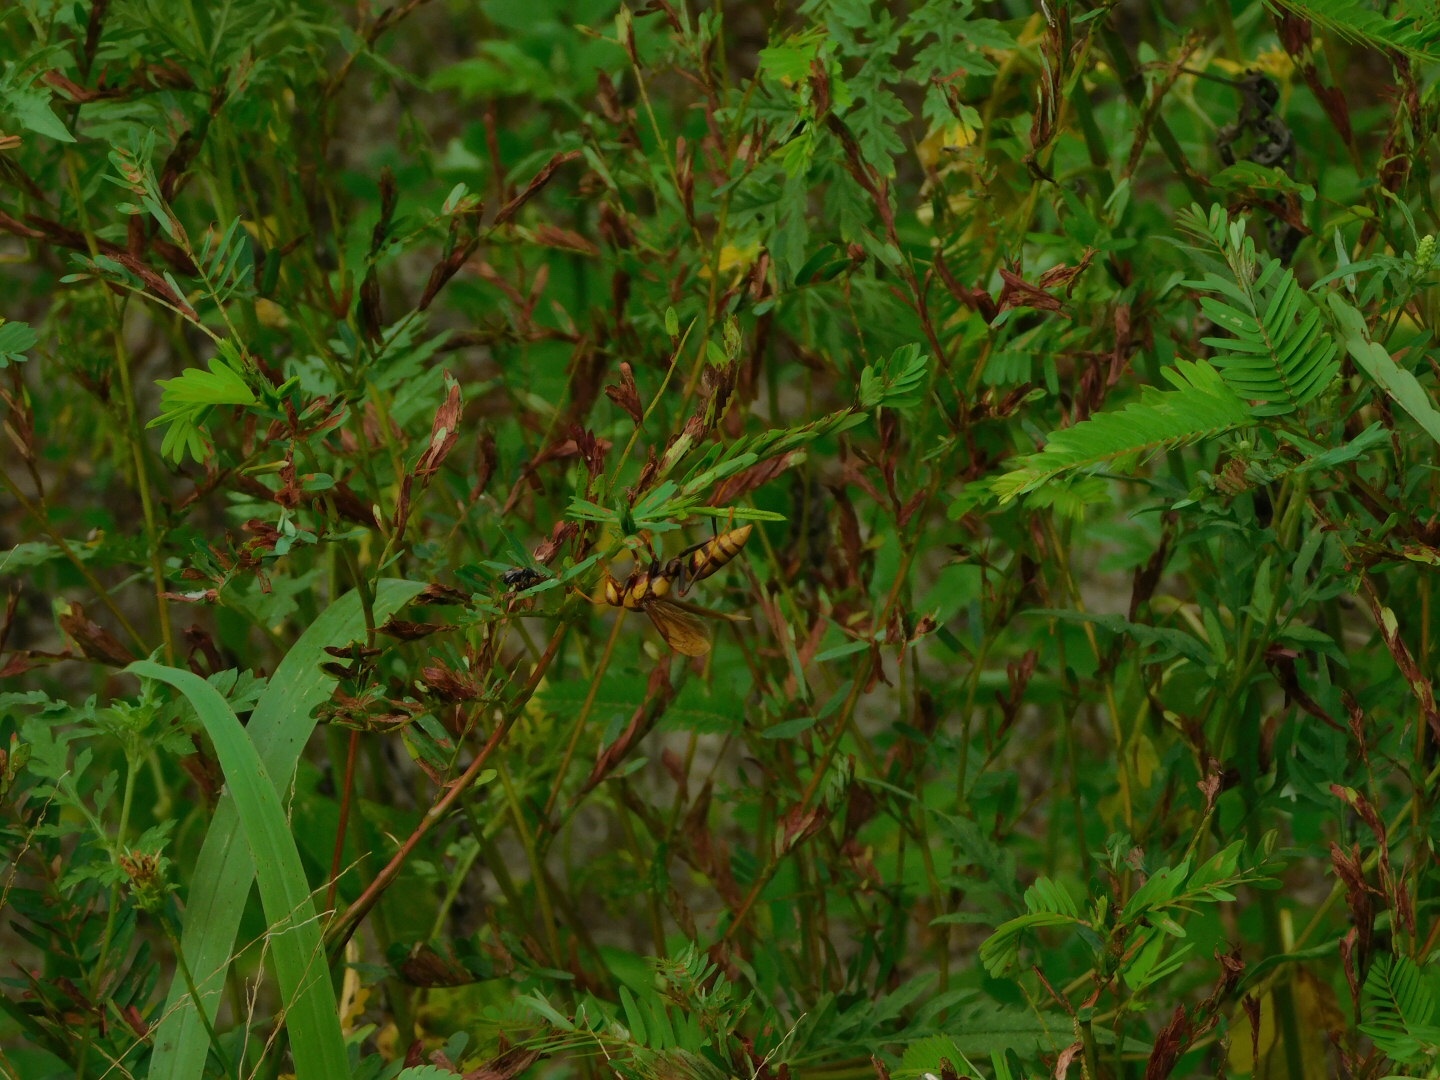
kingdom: Animalia
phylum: Arthropoda
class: Insecta
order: Hymenoptera
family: Eumenidae
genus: Polistes
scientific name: Polistes major
